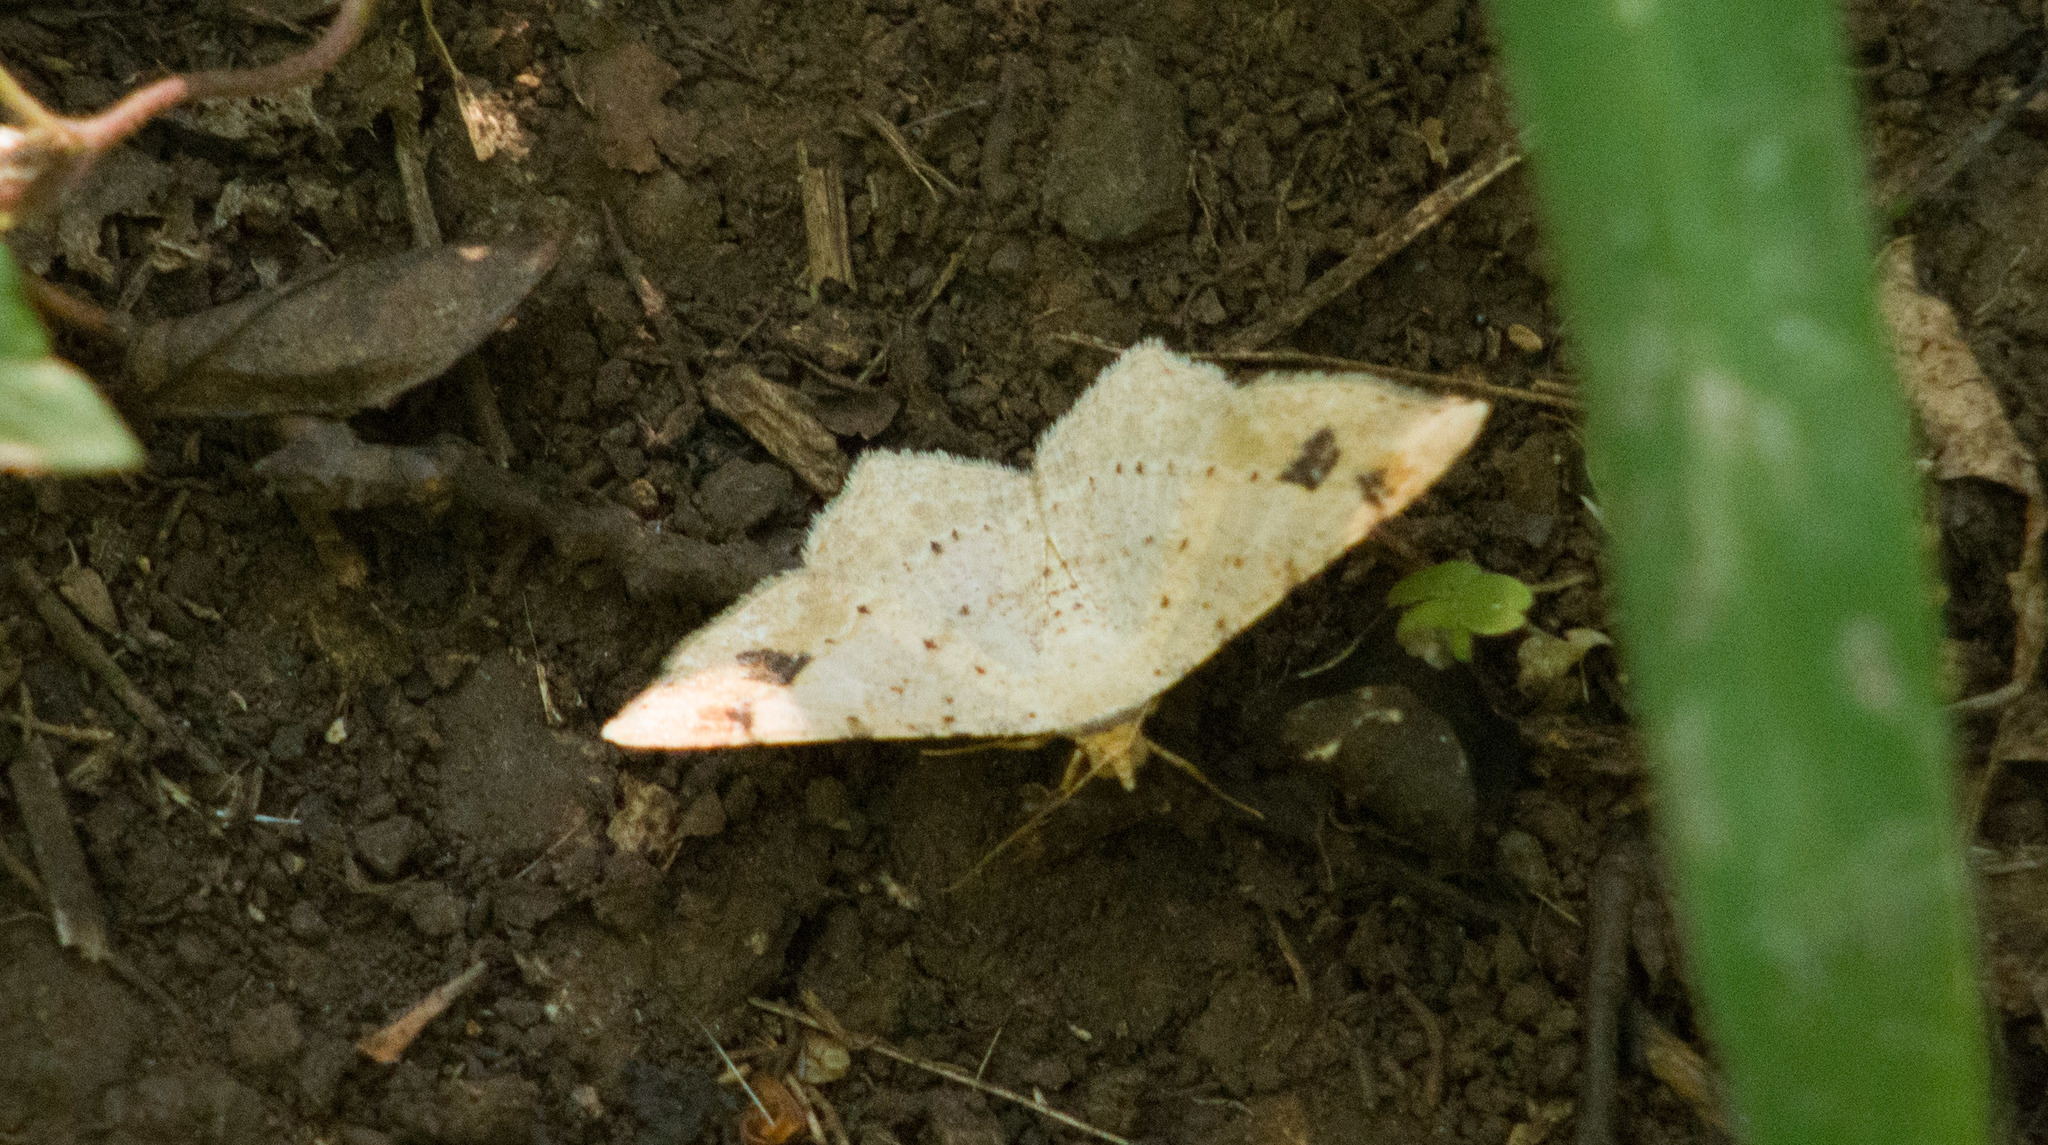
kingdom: Animalia
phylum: Arthropoda
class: Insecta
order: Lepidoptera
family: Geometridae
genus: Macaria
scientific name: Macaria abydata
